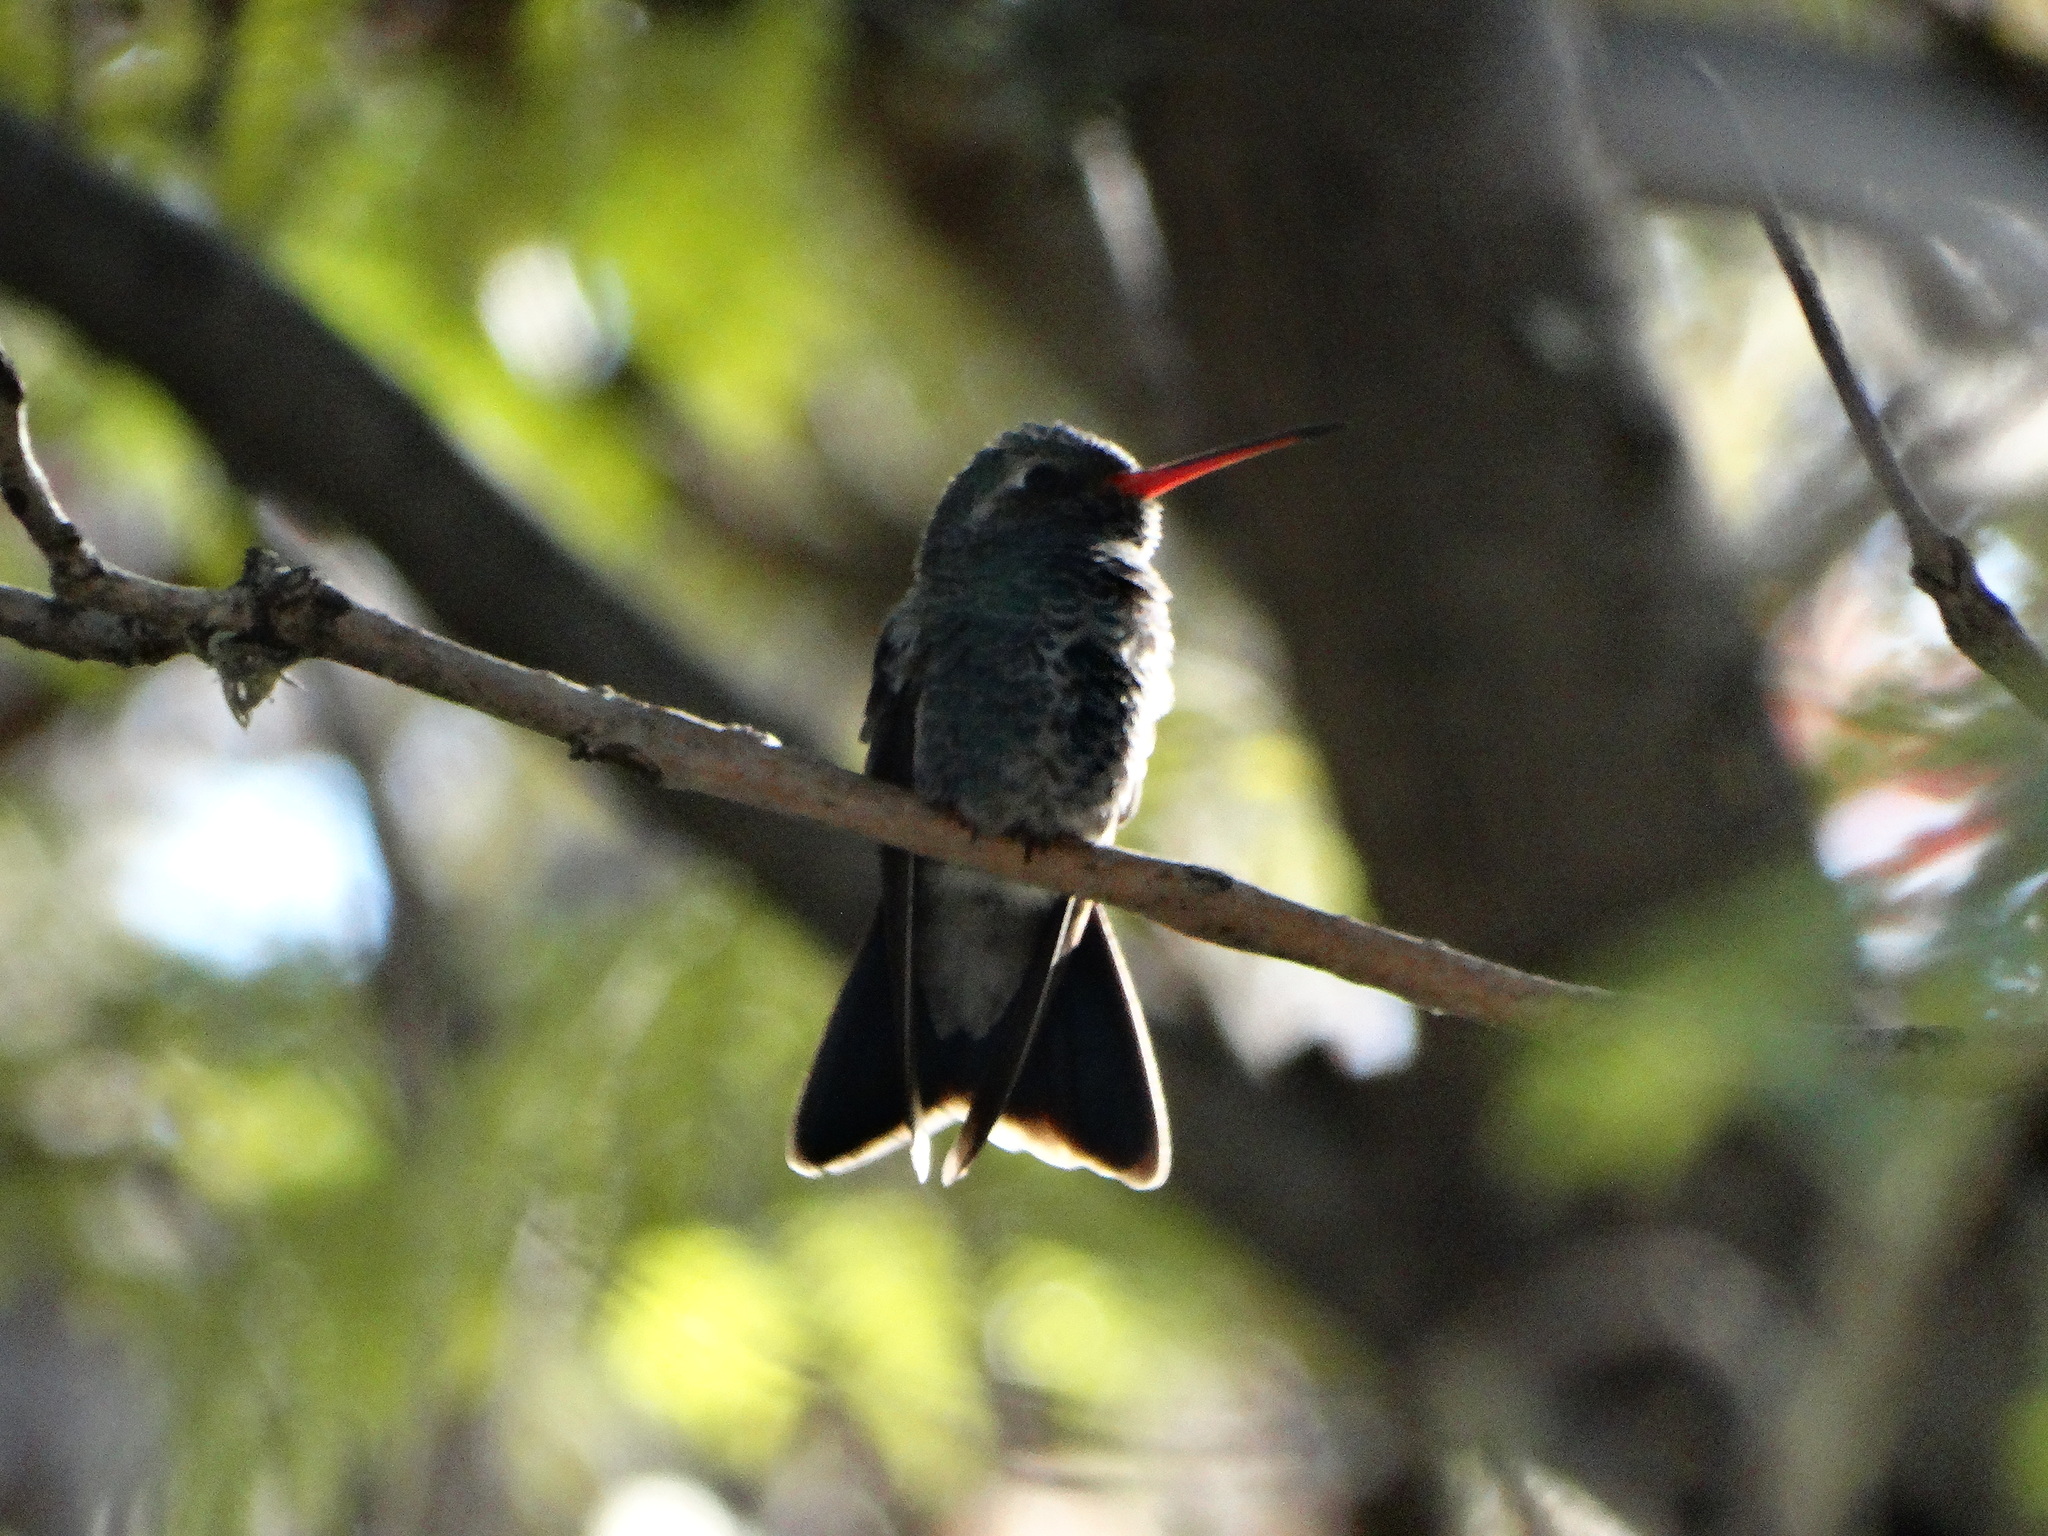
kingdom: Animalia
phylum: Chordata
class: Aves
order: Apodiformes
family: Trochilidae
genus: Cynanthus
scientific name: Cynanthus latirostris
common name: Broad-billed hummingbird
